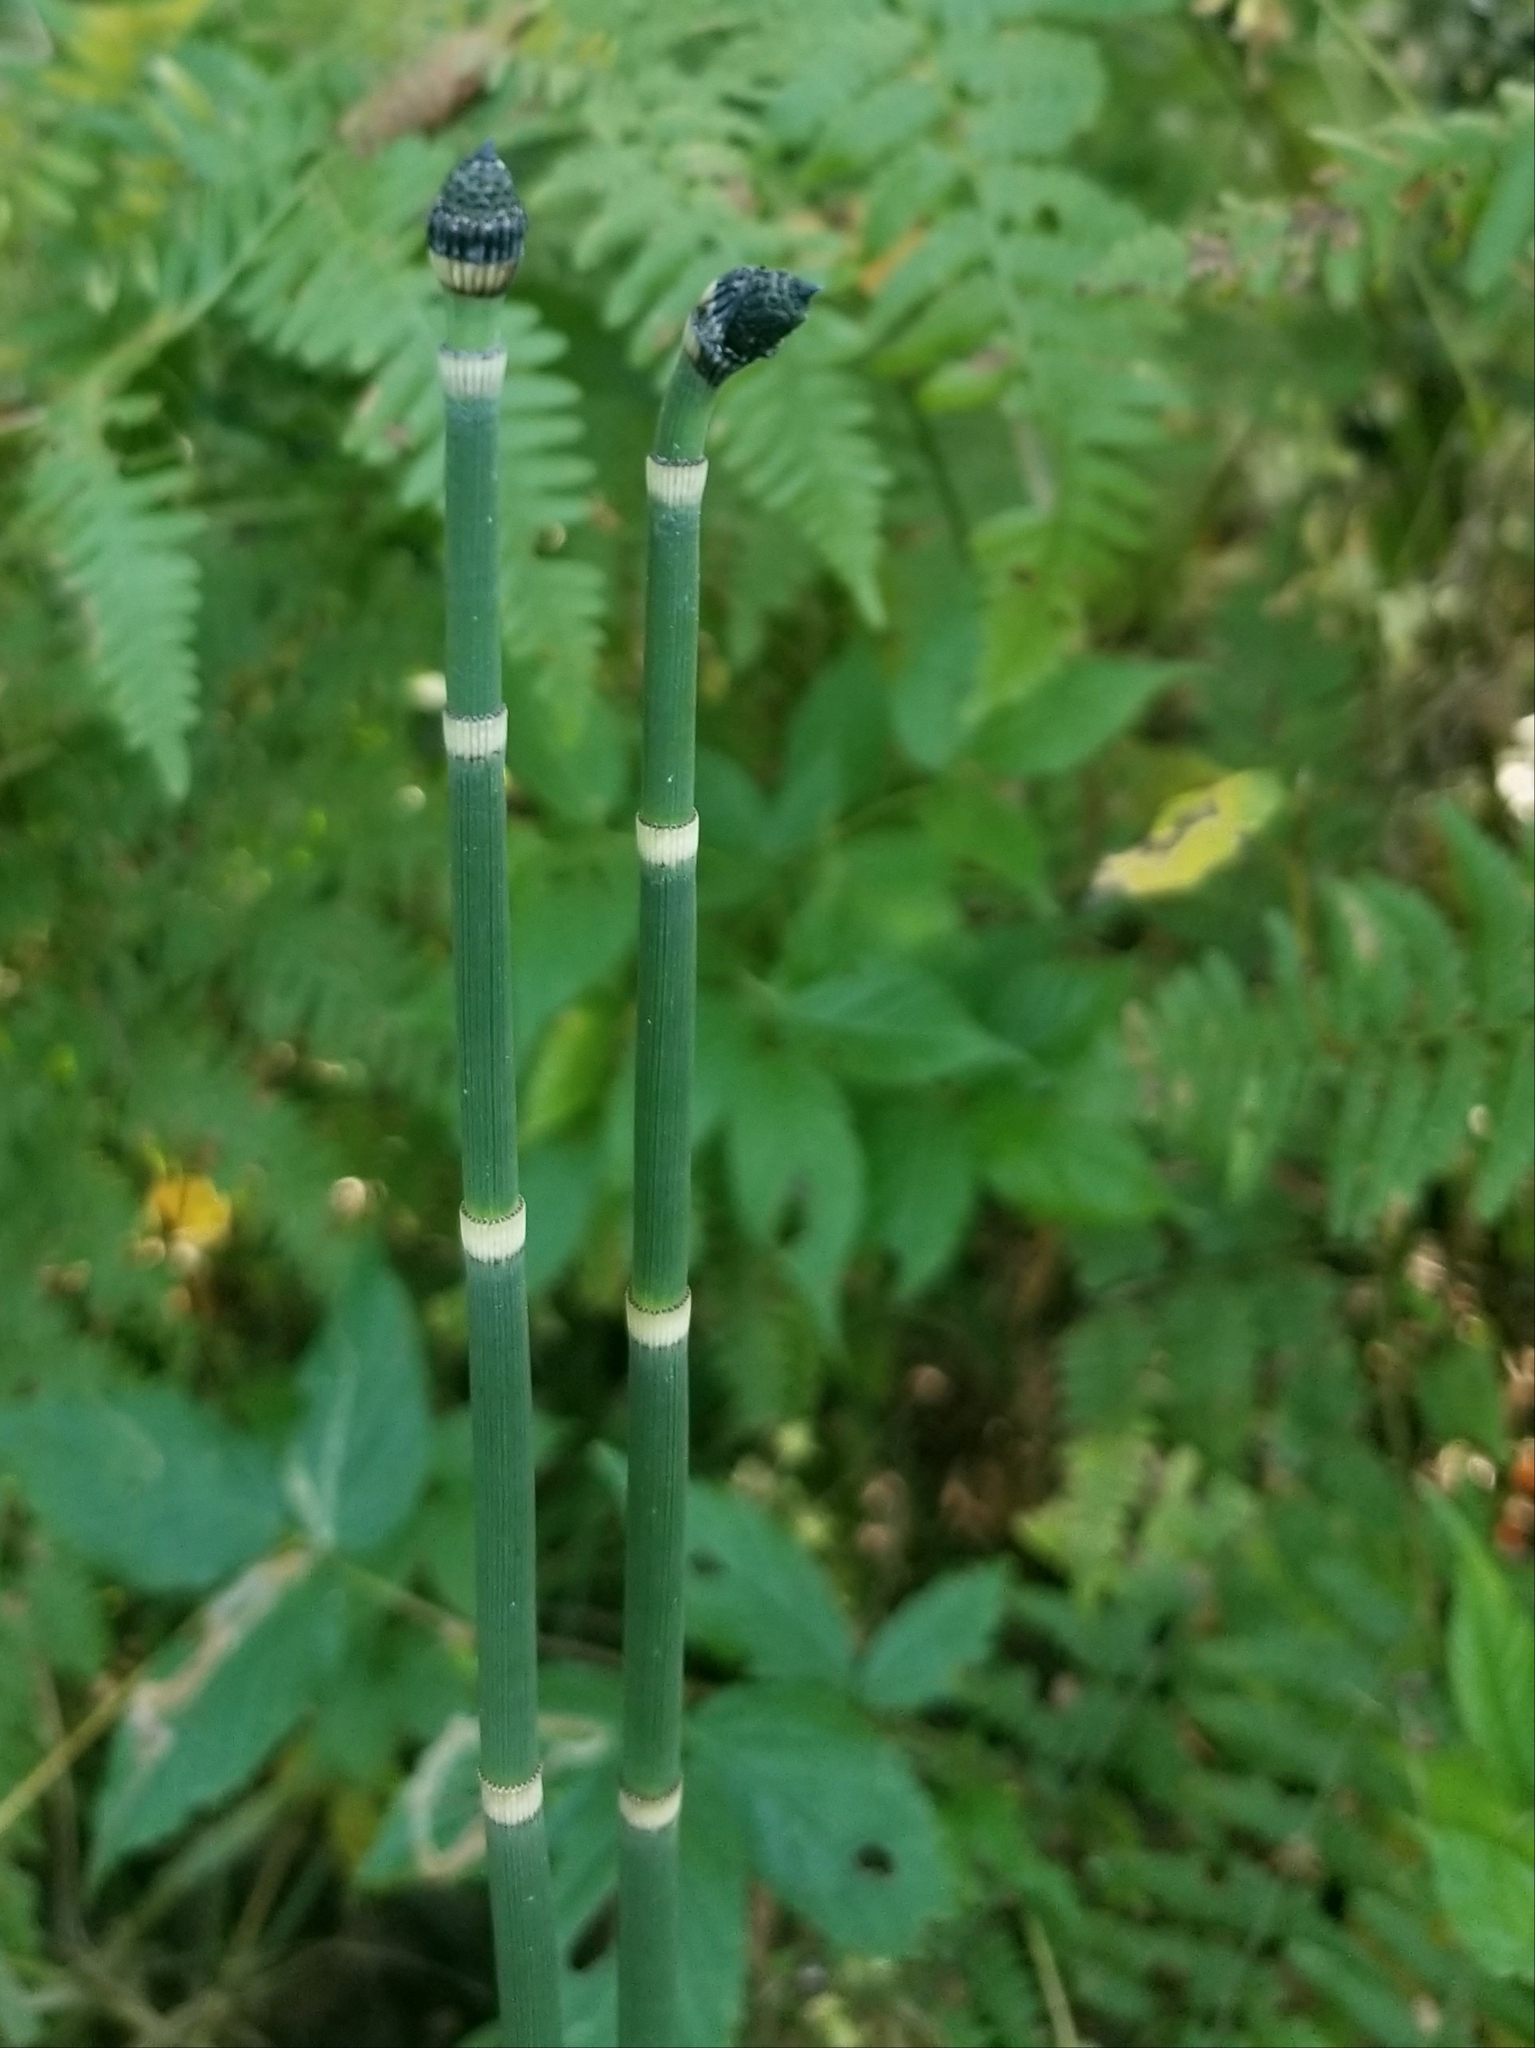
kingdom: Plantae
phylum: Tracheophyta
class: Polypodiopsida
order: Equisetales
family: Equisetaceae
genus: Equisetum
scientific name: Equisetum hyemale
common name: Rough horsetail
